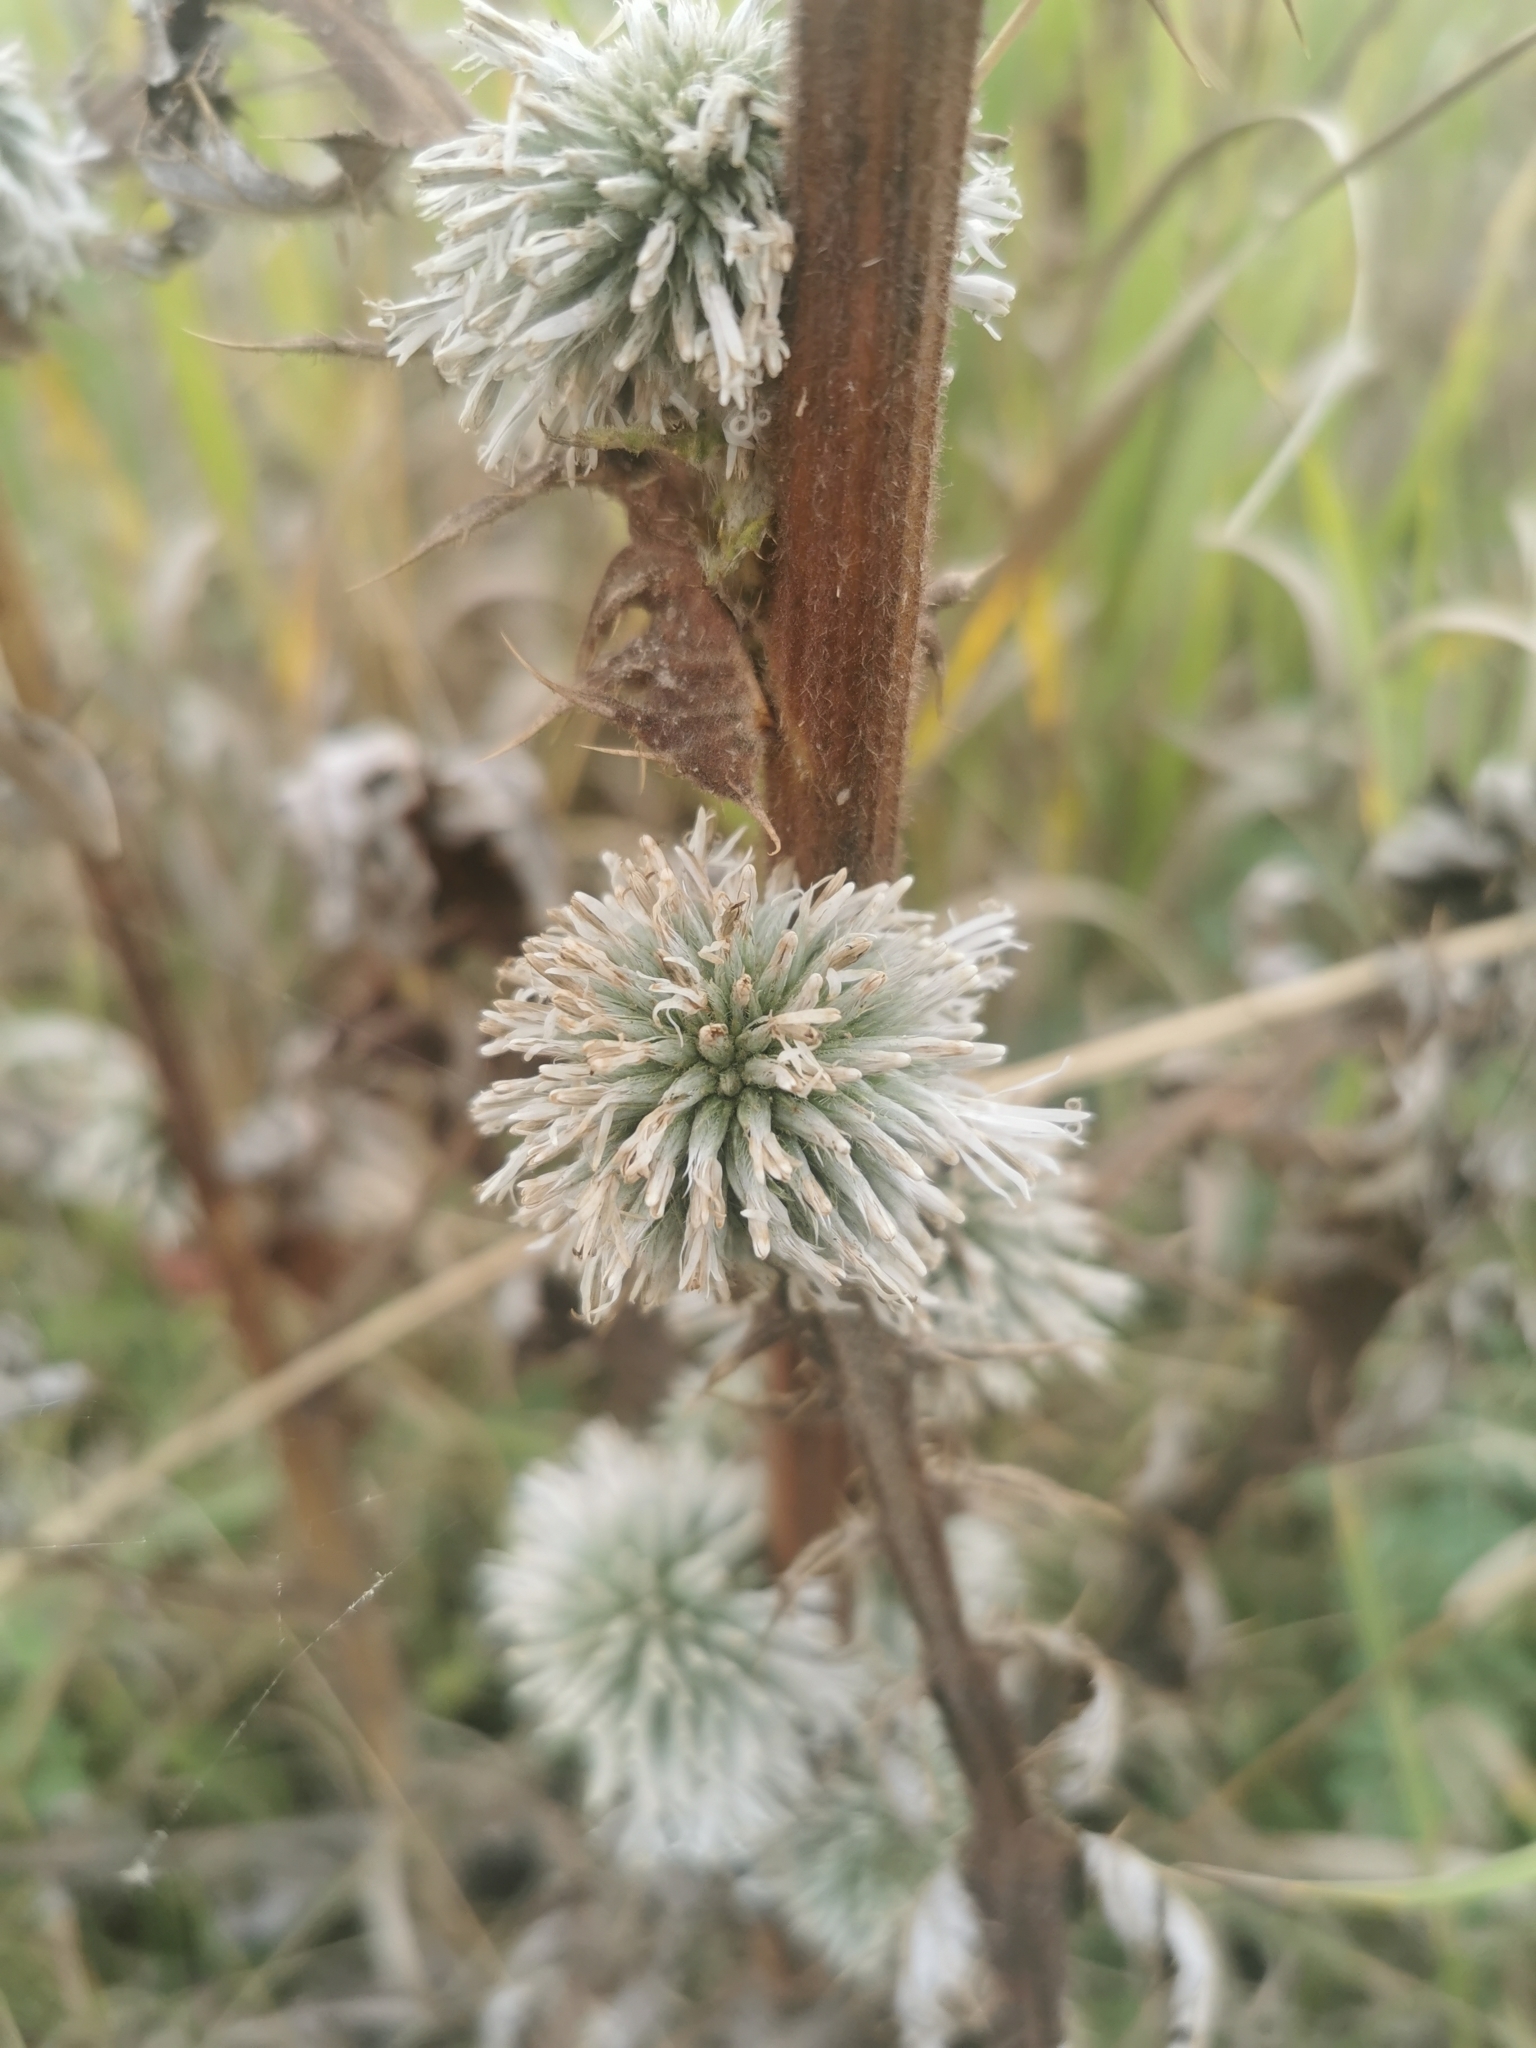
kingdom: Plantae
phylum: Tracheophyta
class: Magnoliopsida
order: Asterales
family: Asteraceae
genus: Echinops
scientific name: Echinops sphaerocephalus
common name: Glandular globe-thistle
